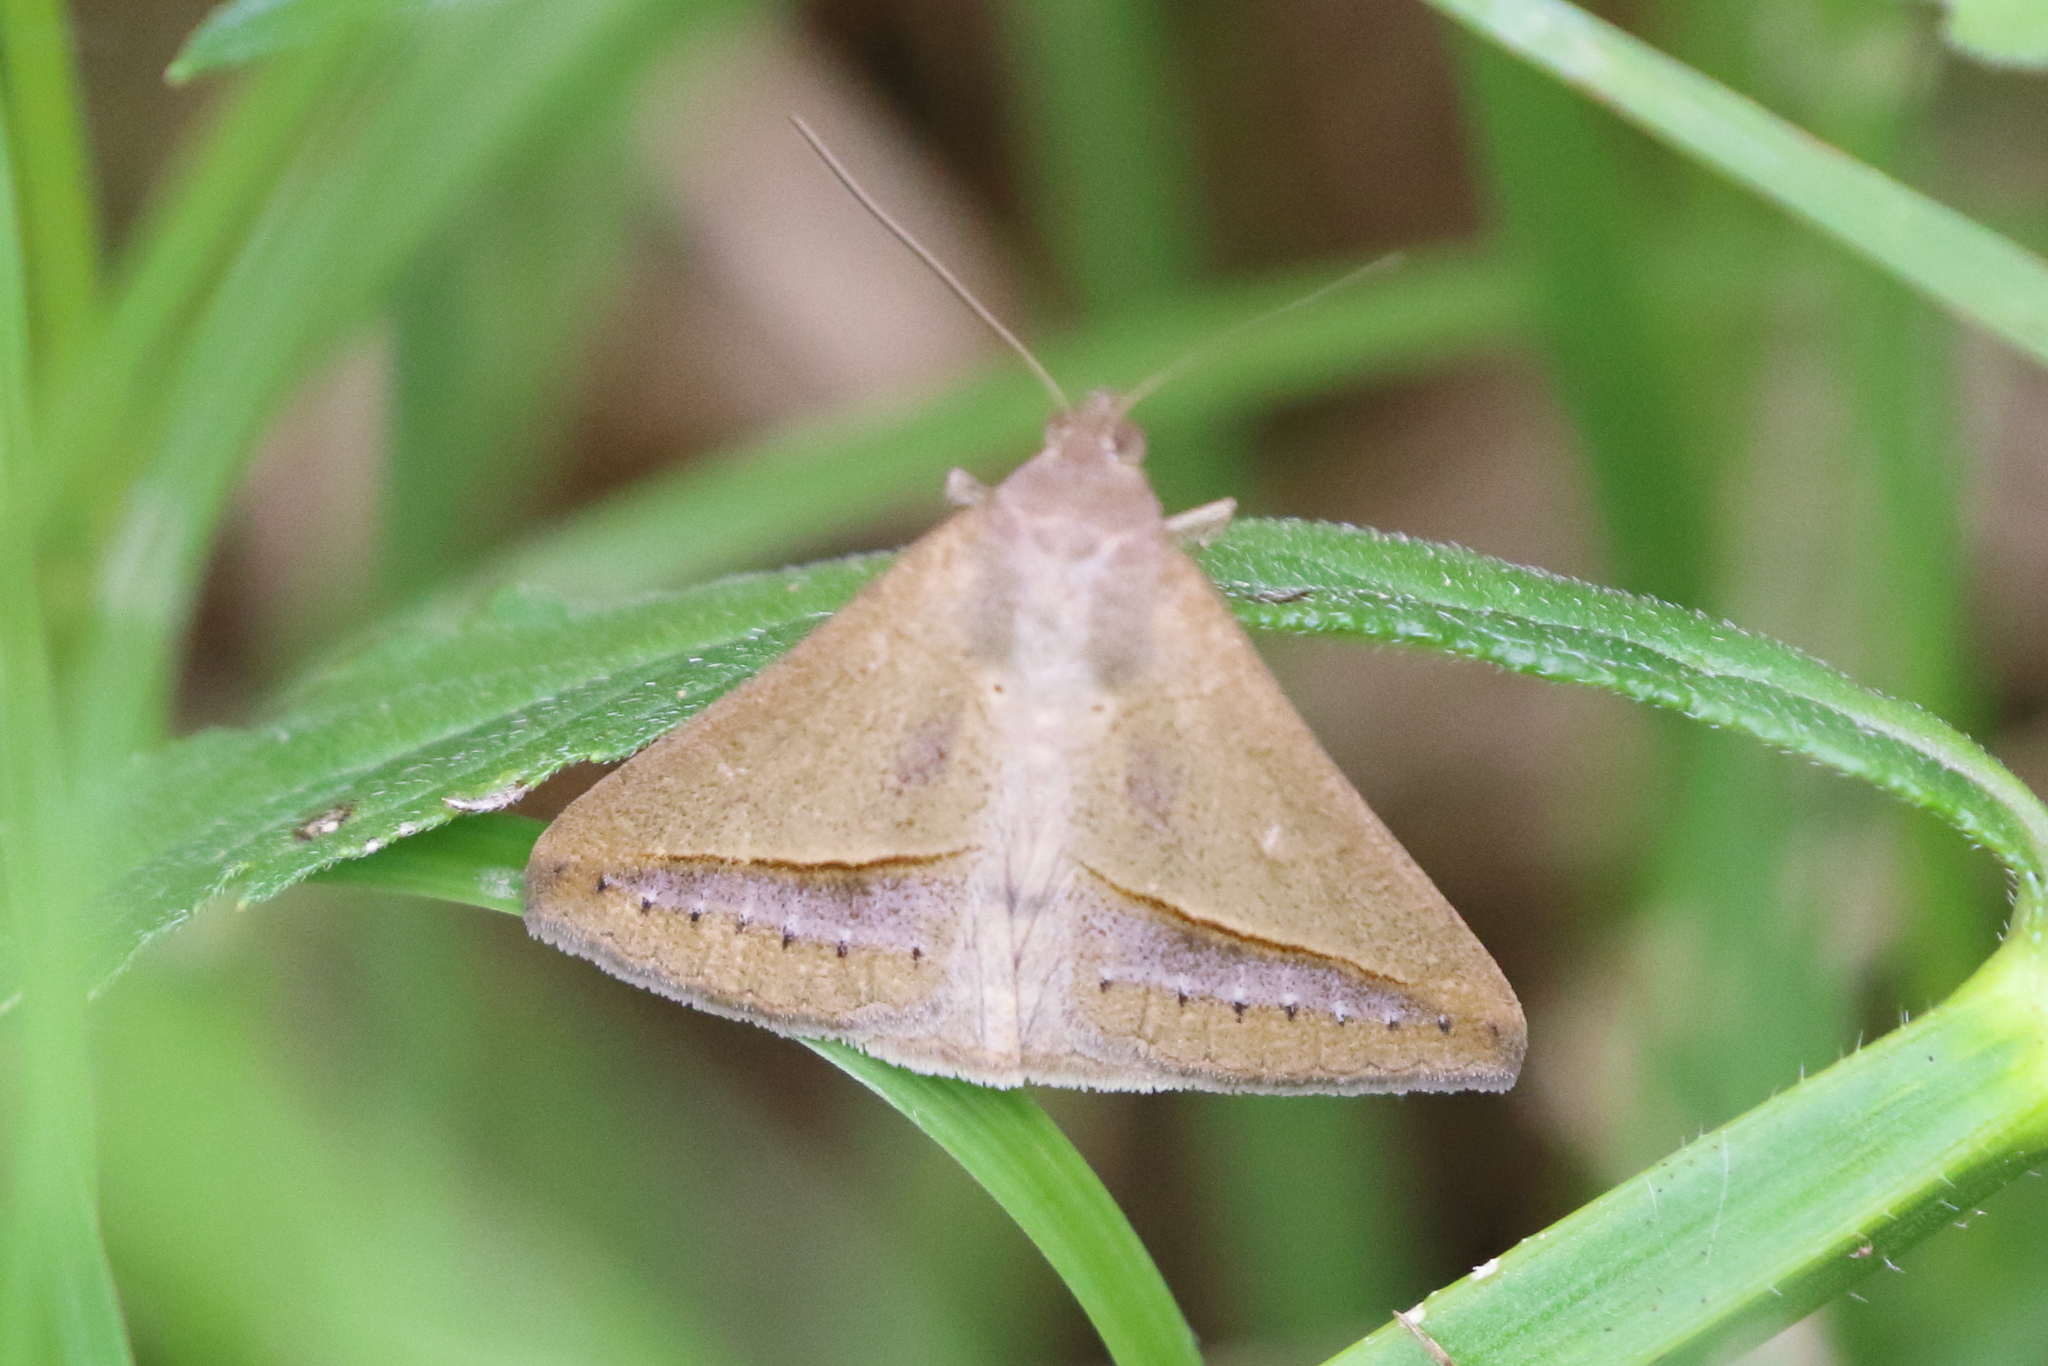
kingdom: Animalia
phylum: Arthropoda
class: Insecta
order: Lepidoptera
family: Erebidae
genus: Mocis
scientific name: Mocis frugalis
